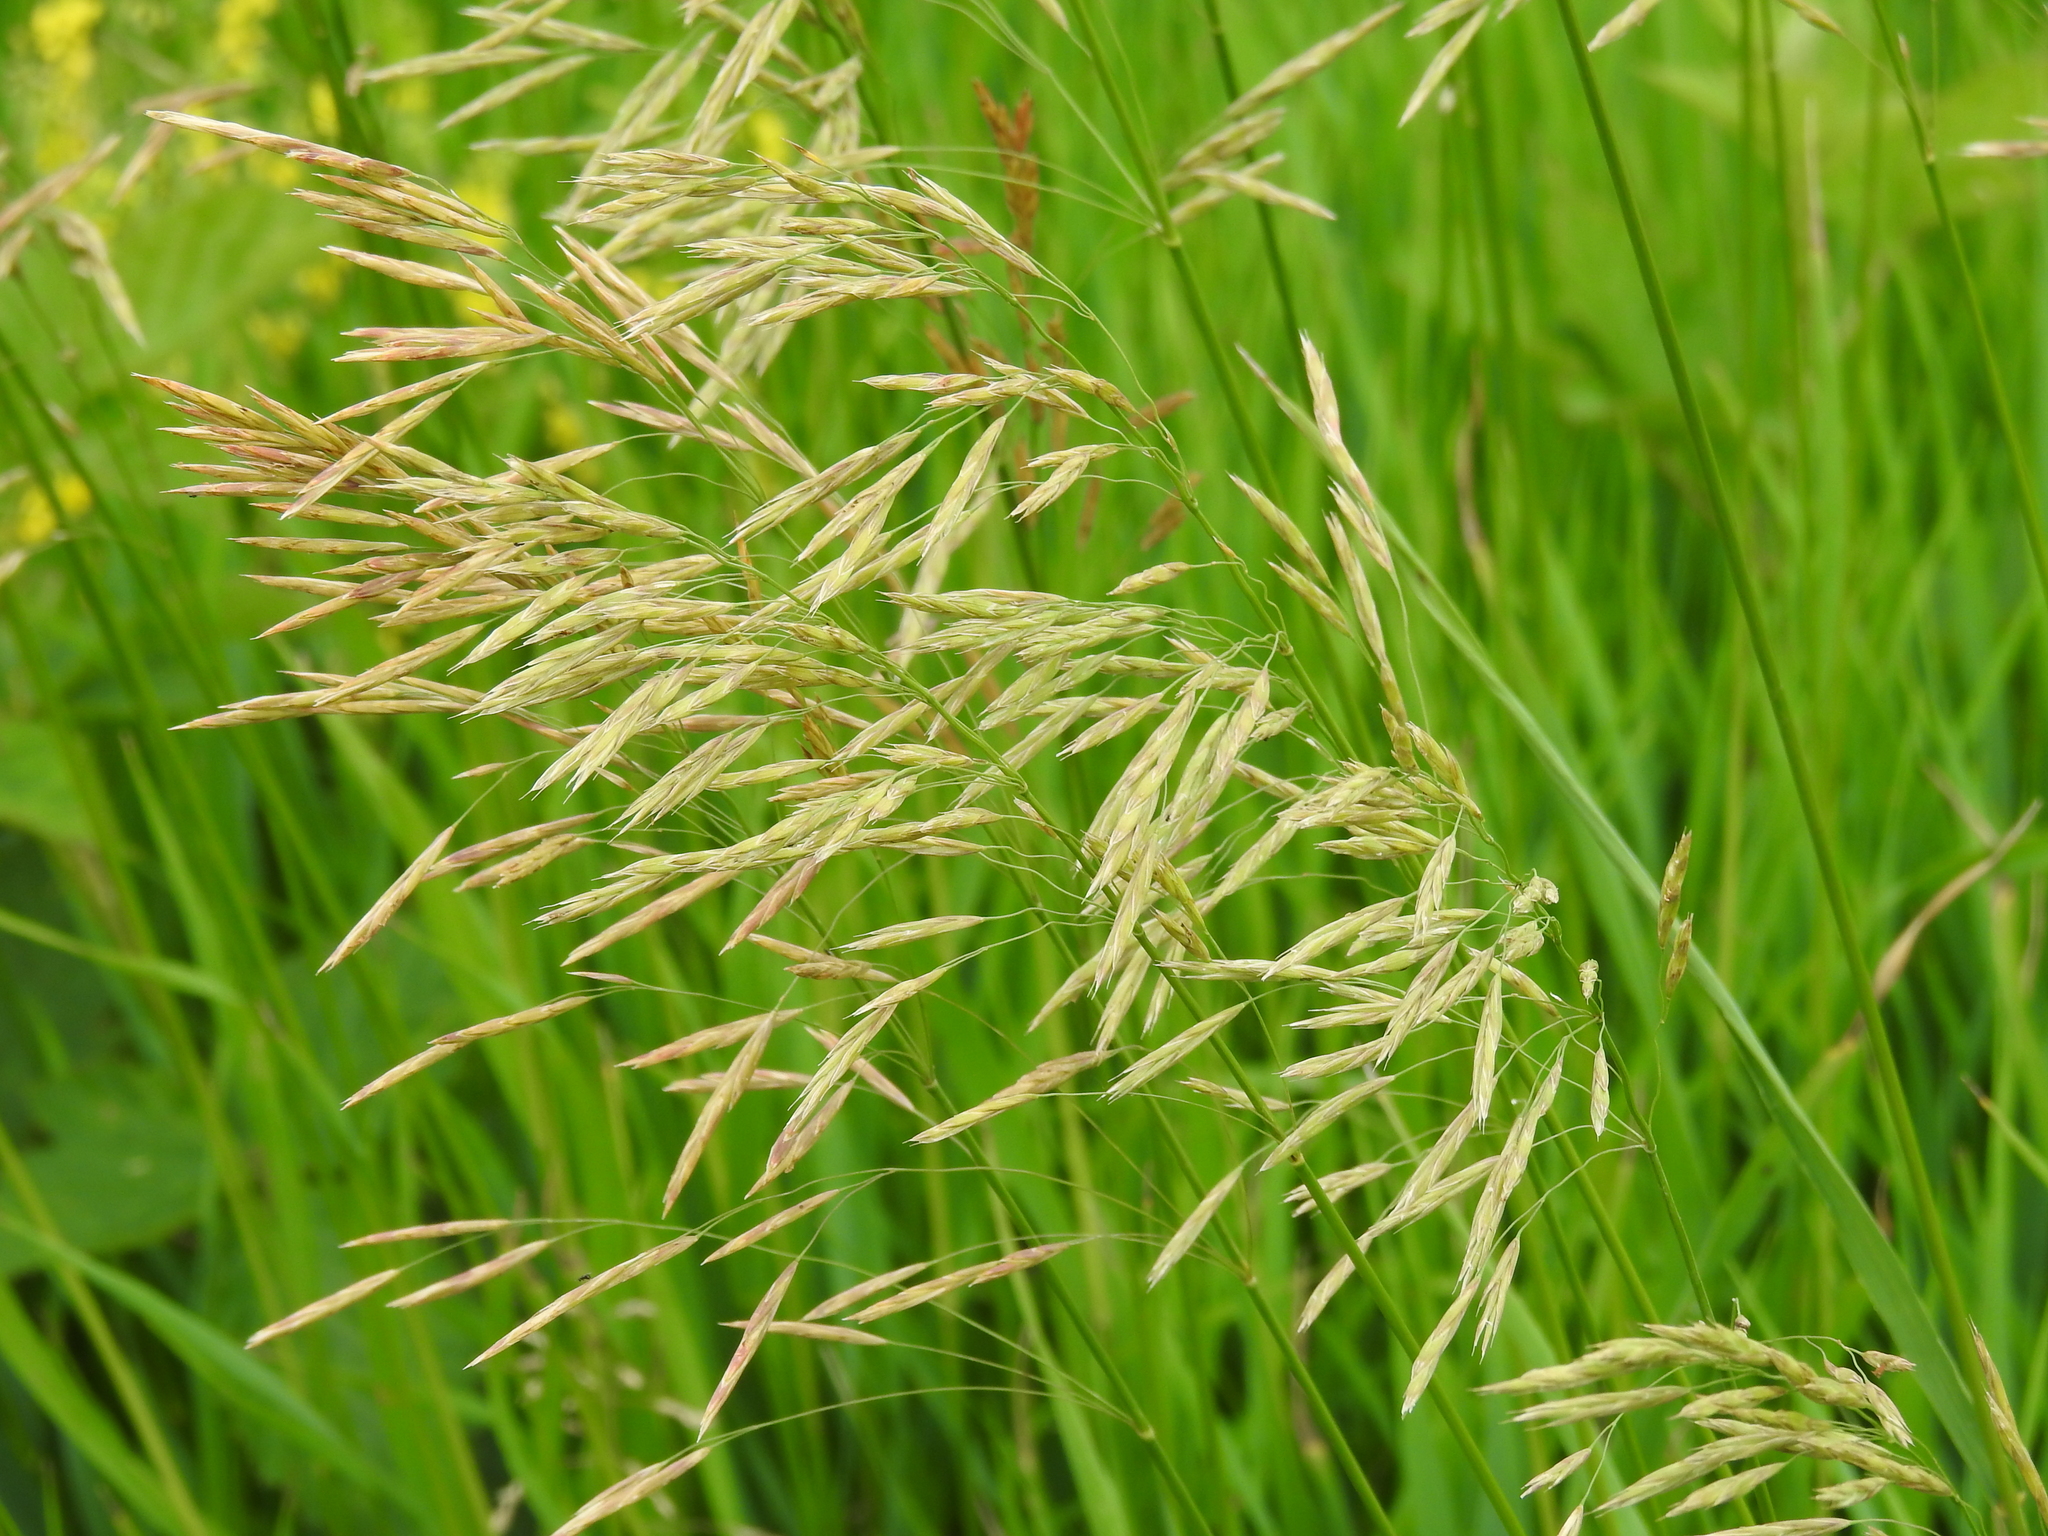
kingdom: Plantae
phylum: Tracheophyta
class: Liliopsida
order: Poales
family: Poaceae
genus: Bromus
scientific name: Bromus inermis
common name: Smooth brome
